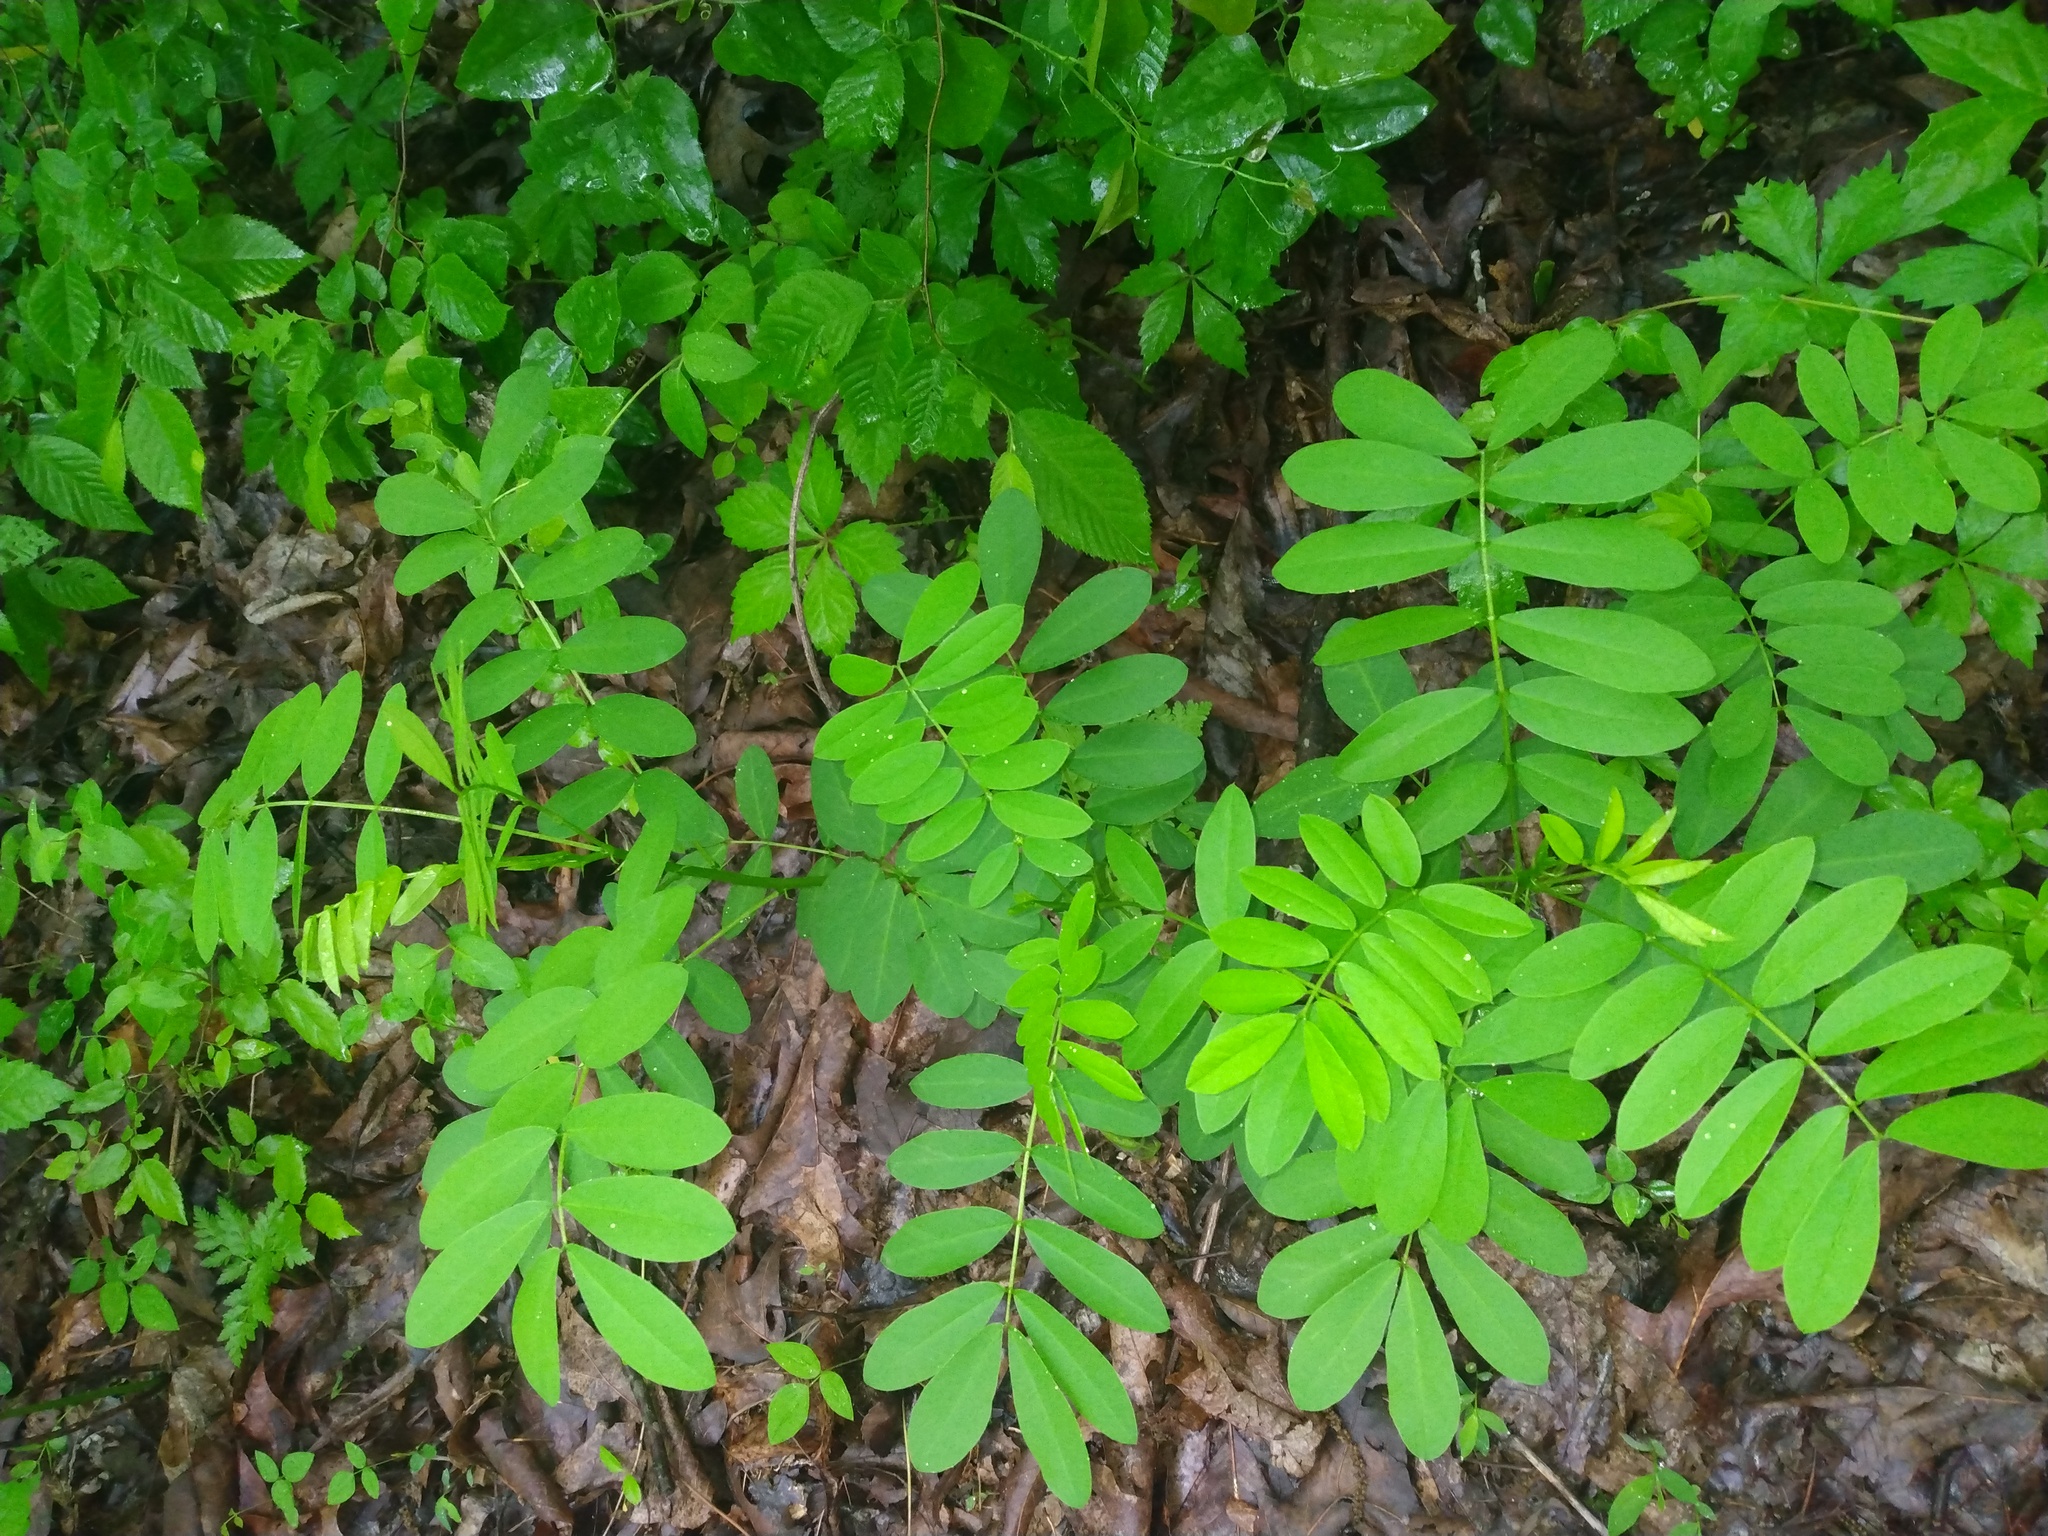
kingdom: Plantae
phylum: Tracheophyta
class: Magnoliopsida
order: Fabales
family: Fabaceae
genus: Senna
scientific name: Senna marilandica
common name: American senna
